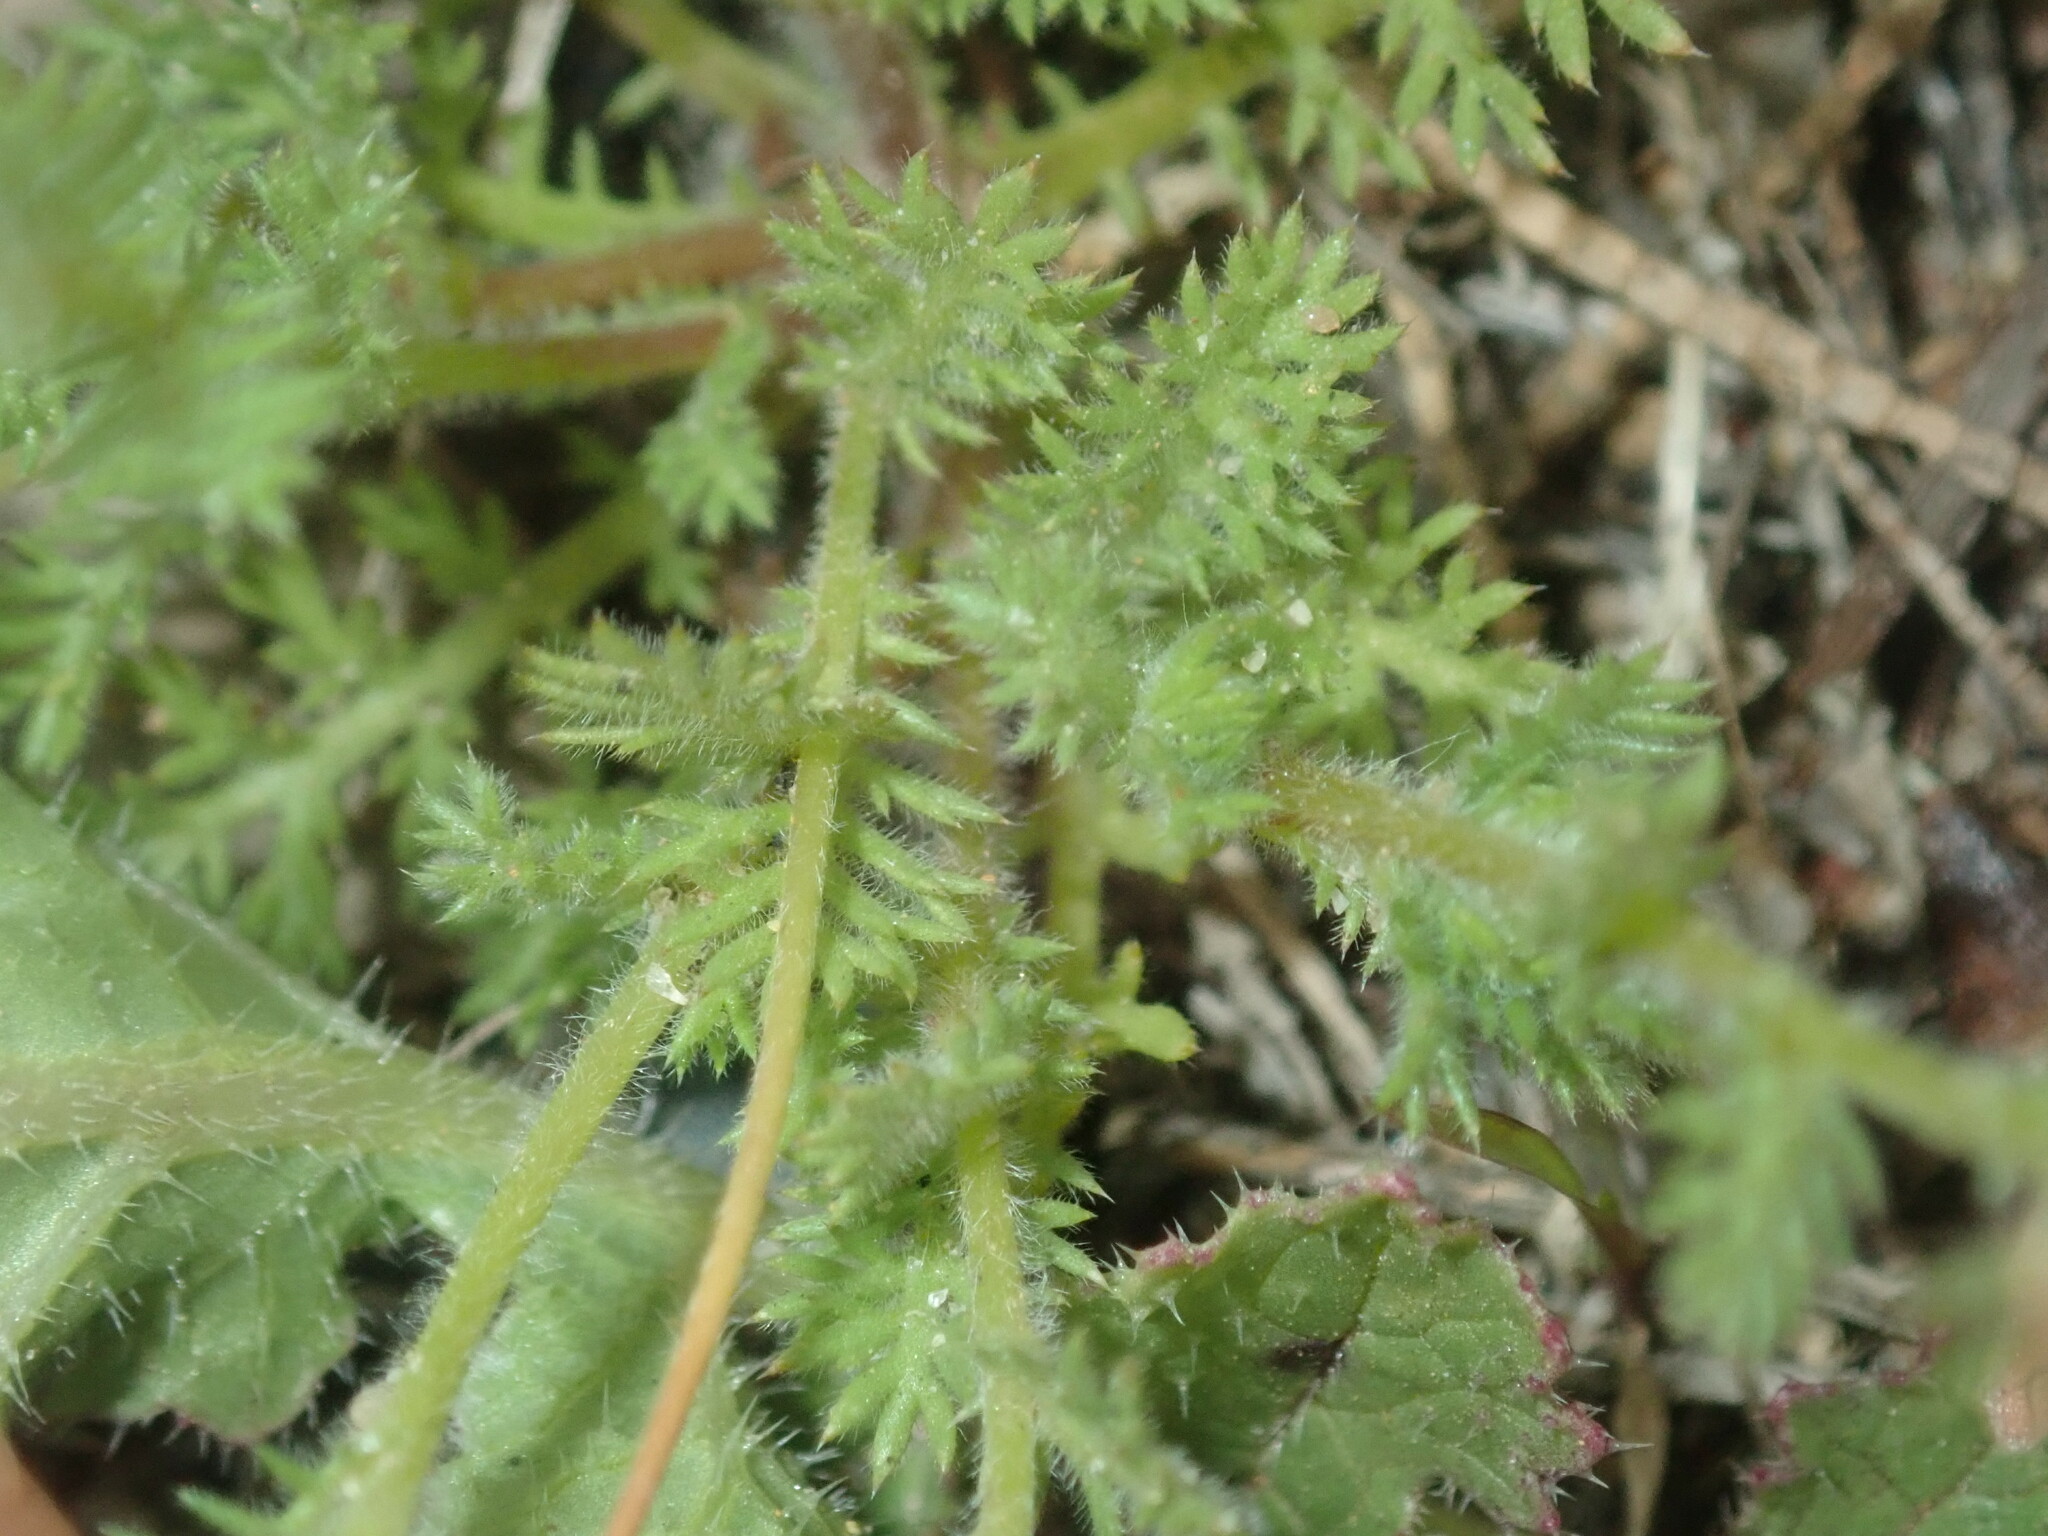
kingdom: Plantae
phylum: Tracheophyta
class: Magnoliopsida
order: Asterales
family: Asteraceae
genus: Cotula
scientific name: Cotula turbinata
